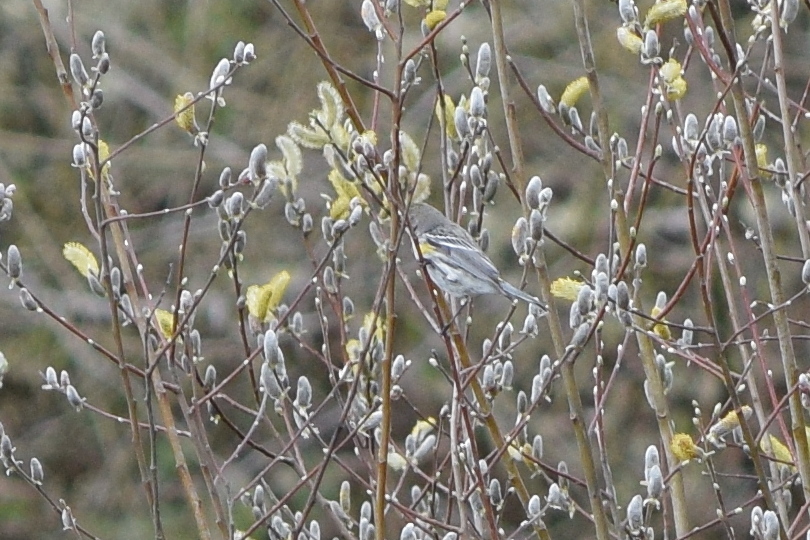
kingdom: Animalia
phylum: Chordata
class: Aves
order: Passeriformes
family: Parulidae
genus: Setophaga
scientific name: Setophaga coronata
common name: Myrtle warbler
